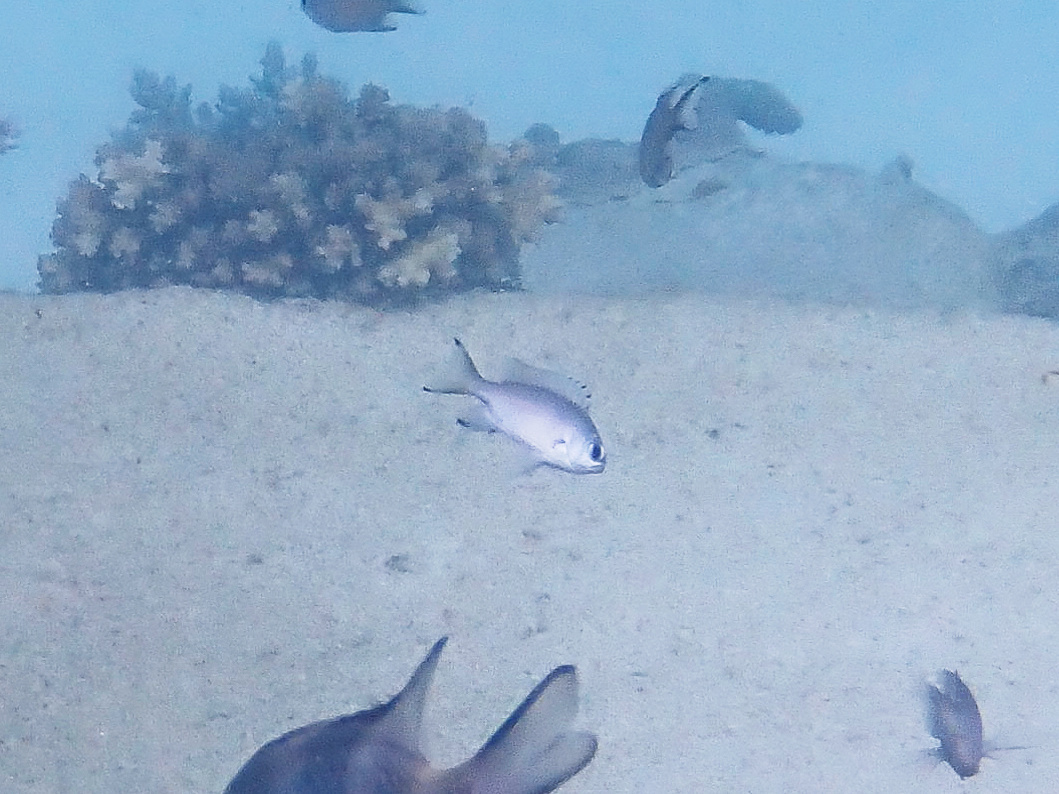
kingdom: Animalia
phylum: Chordata
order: Perciformes
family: Pomacentridae
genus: Chromis
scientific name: Chromis lepidolepis
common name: Scaly chromis
